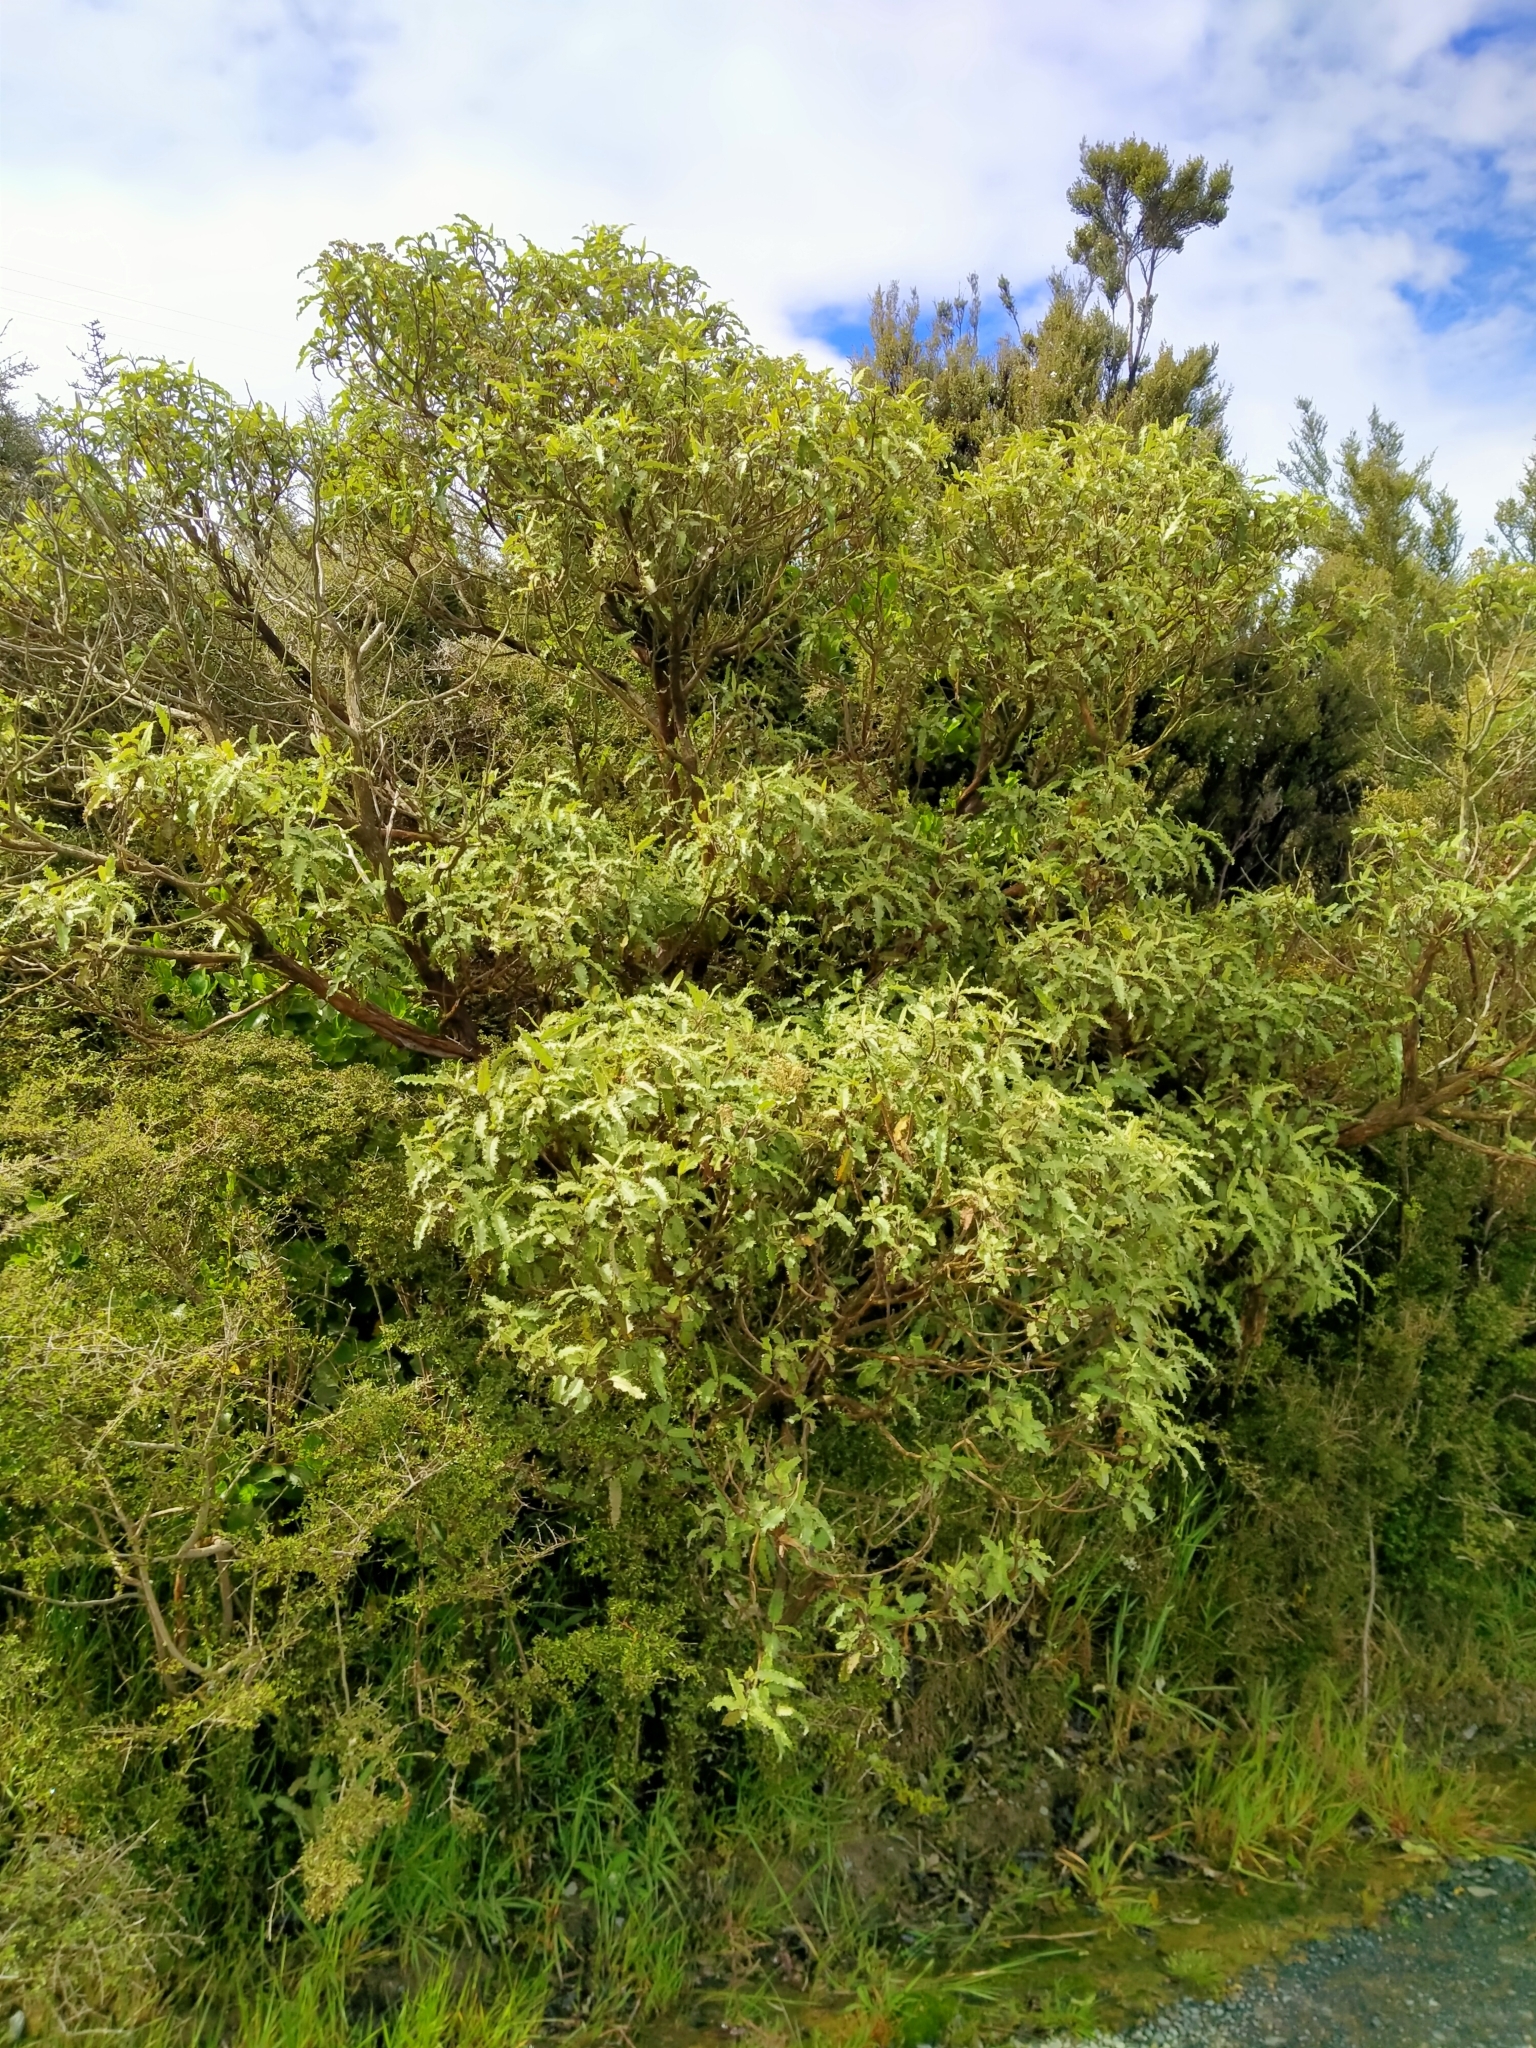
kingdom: Plantae
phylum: Tracheophyta
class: Magnoliopsida
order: Asterales
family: Asteraceae
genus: Olearia
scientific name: Olearia ilicifolia
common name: Maori-holly
